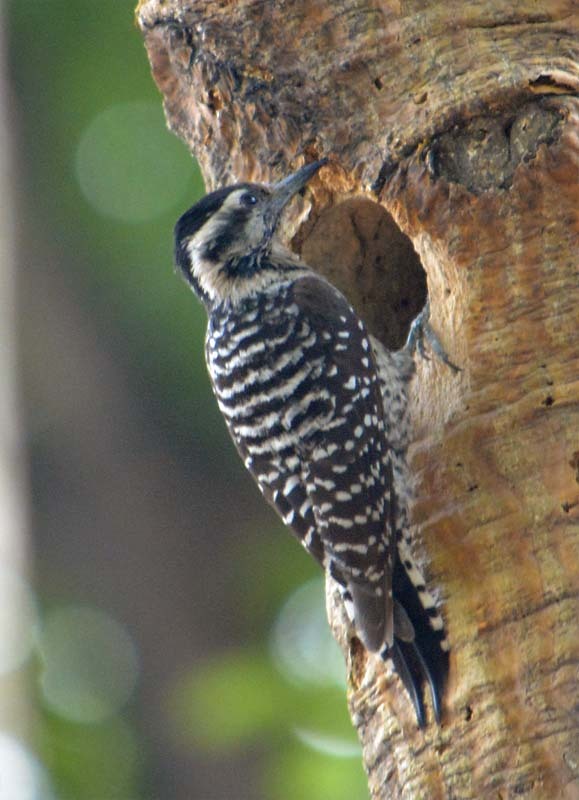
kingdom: Animalia
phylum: Chordata
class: Aves
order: Piciformes
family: Picidae
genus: Dryobates
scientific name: Dryobates scalaris
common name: Ladder-backed woodpecker
